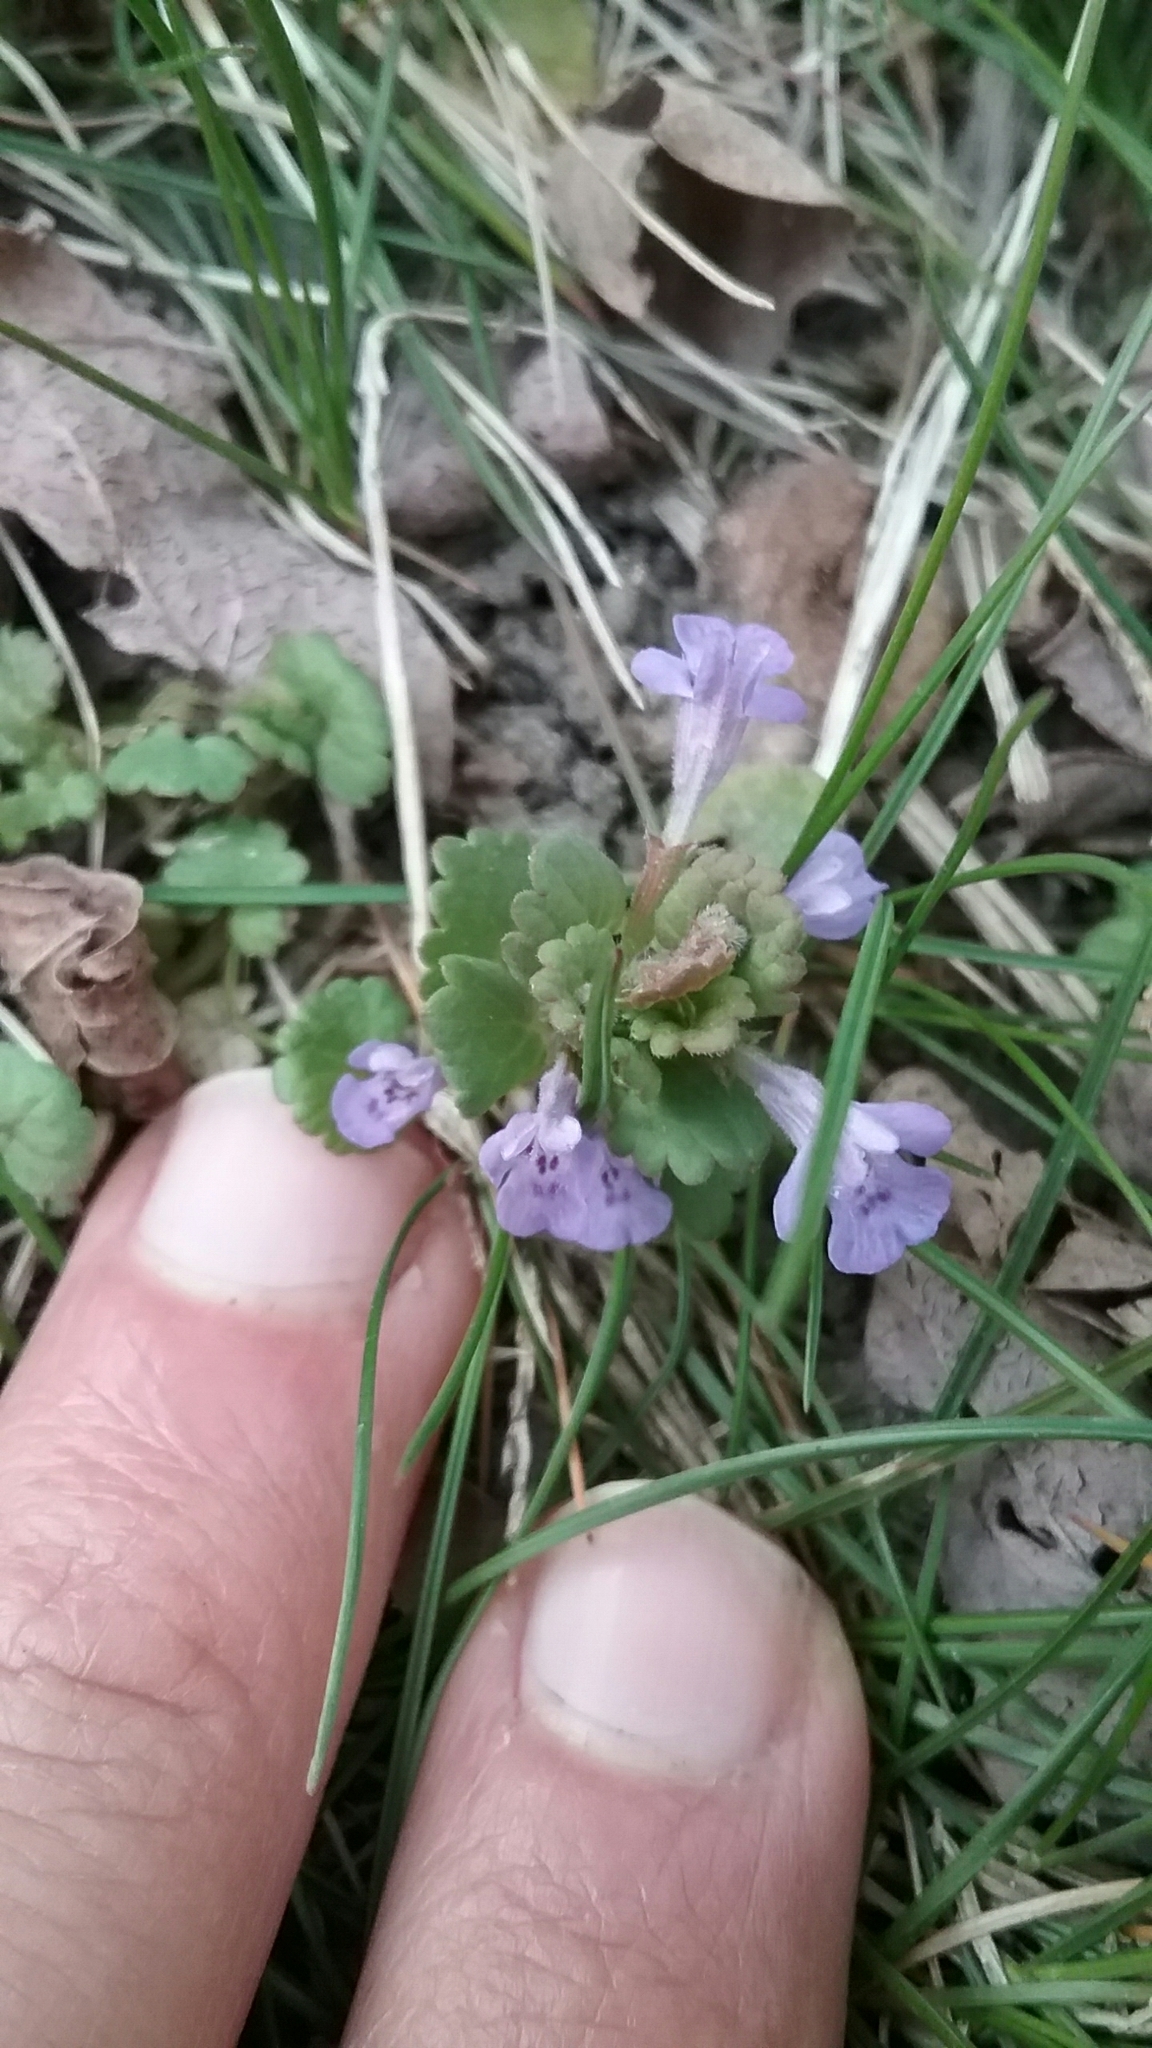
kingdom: Plantae
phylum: Tracheophyta
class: Magnoliopsida
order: Lamiales
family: Lamiaceae
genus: Glechoma
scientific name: Glechoma hederacea
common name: Ground ivy
